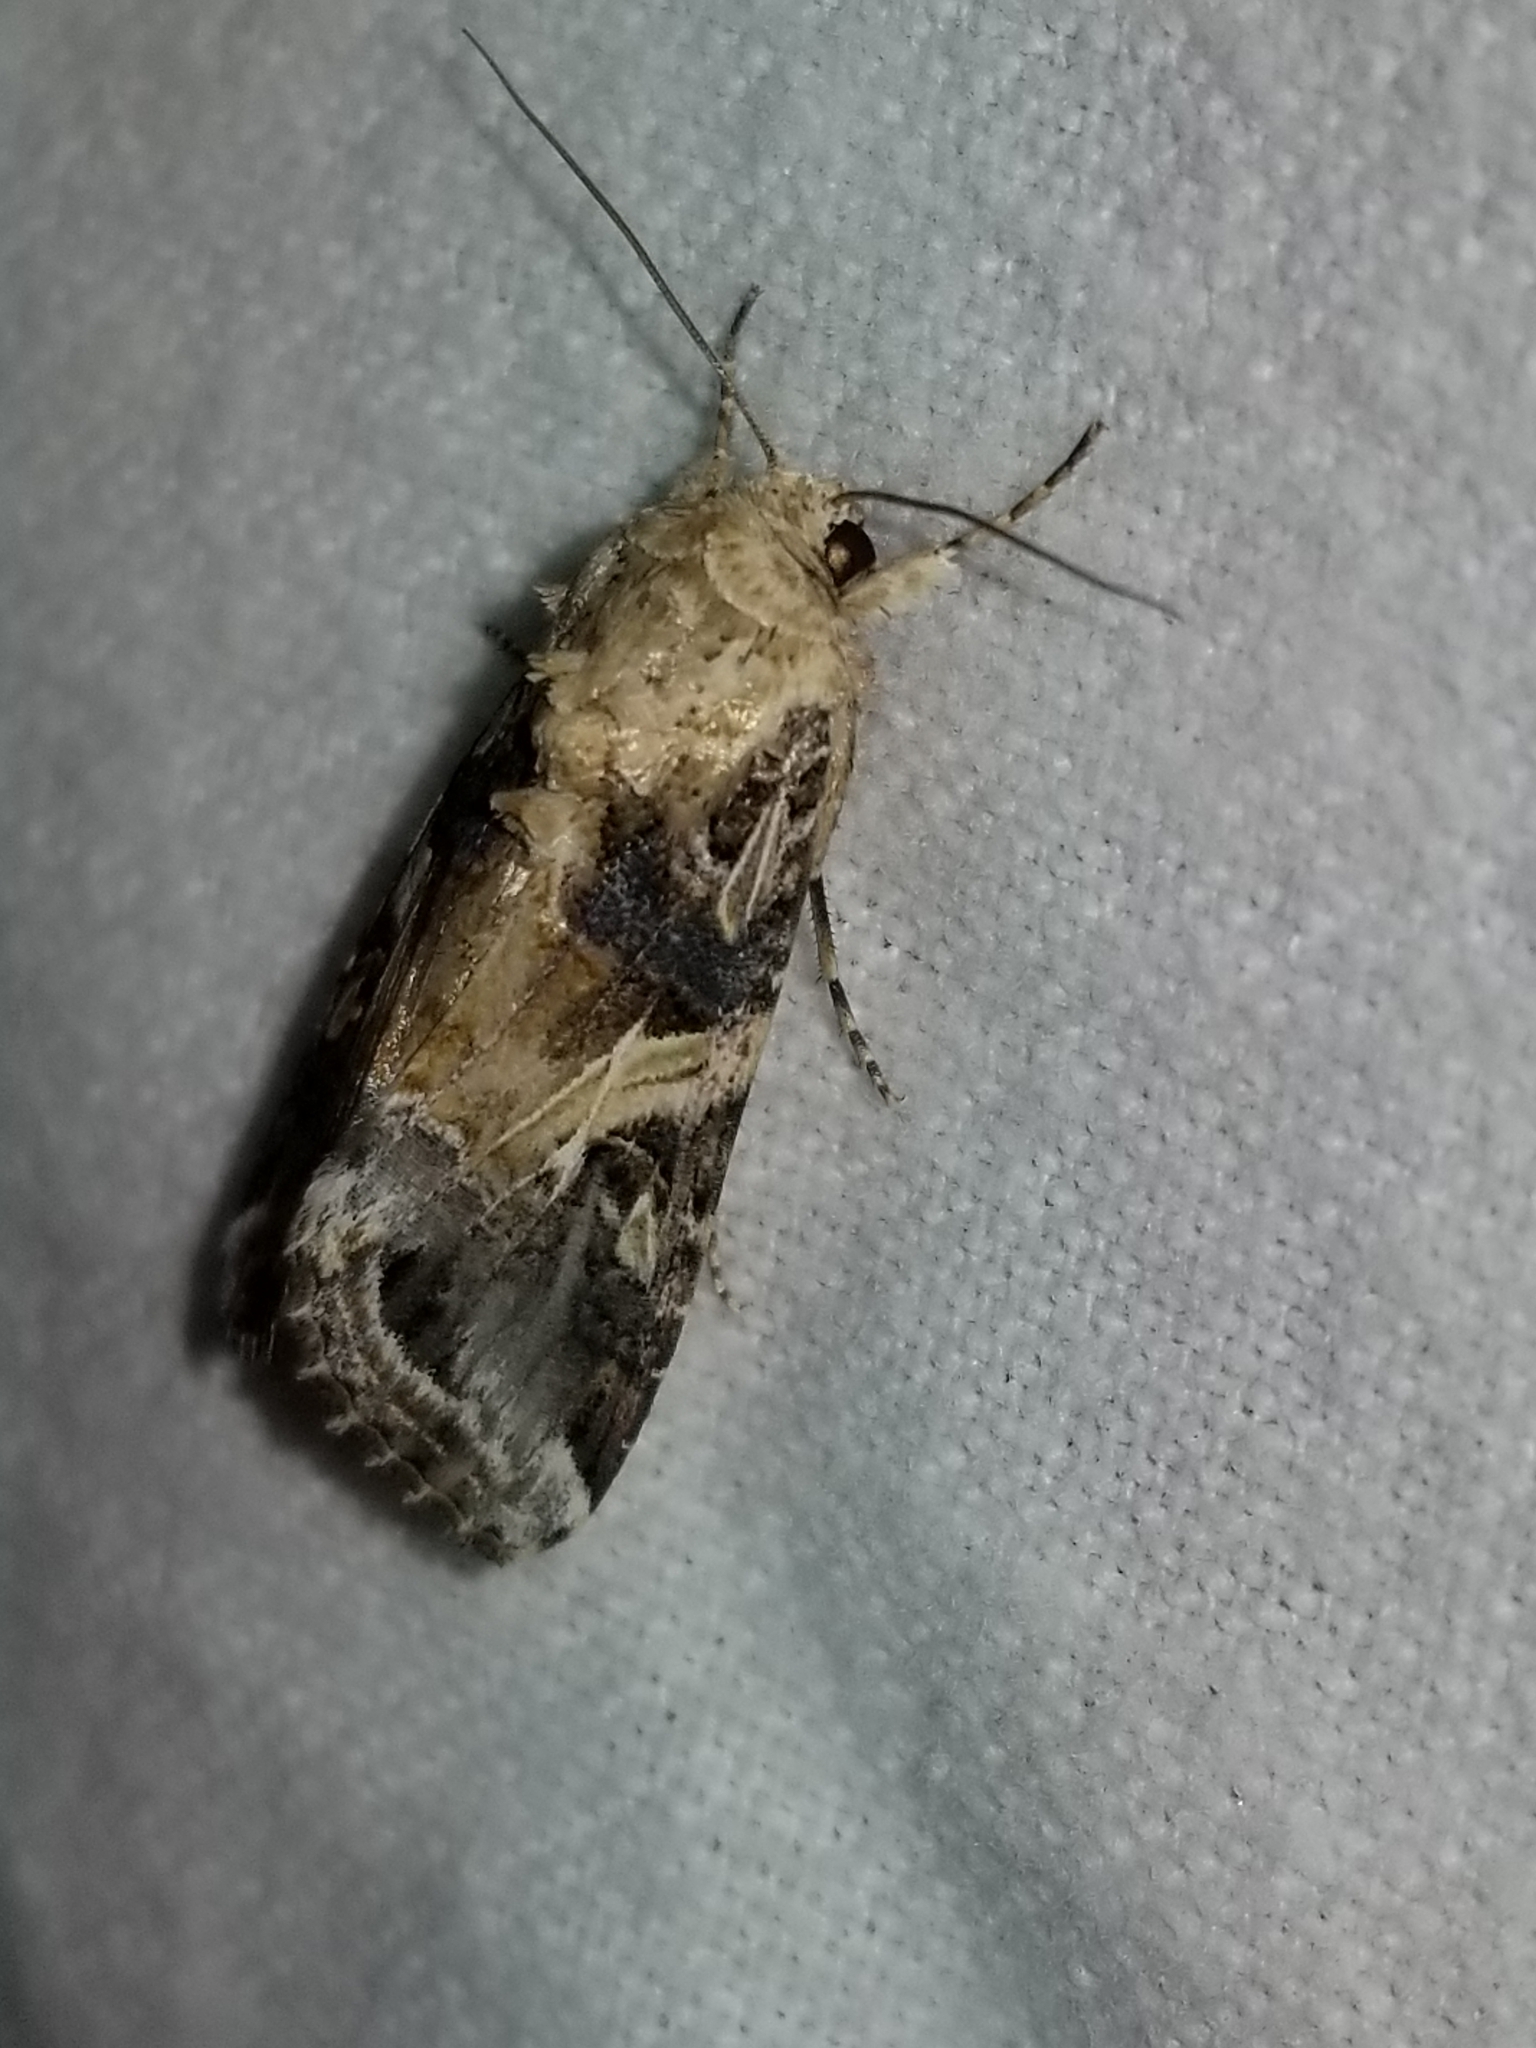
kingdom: Animalia
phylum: Arthropoda
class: Insecta
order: Lepidoptera
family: Noctuidae
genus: Spodoptera
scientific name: Spodoptera ornithogalli
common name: Yellow-striped armyworm
